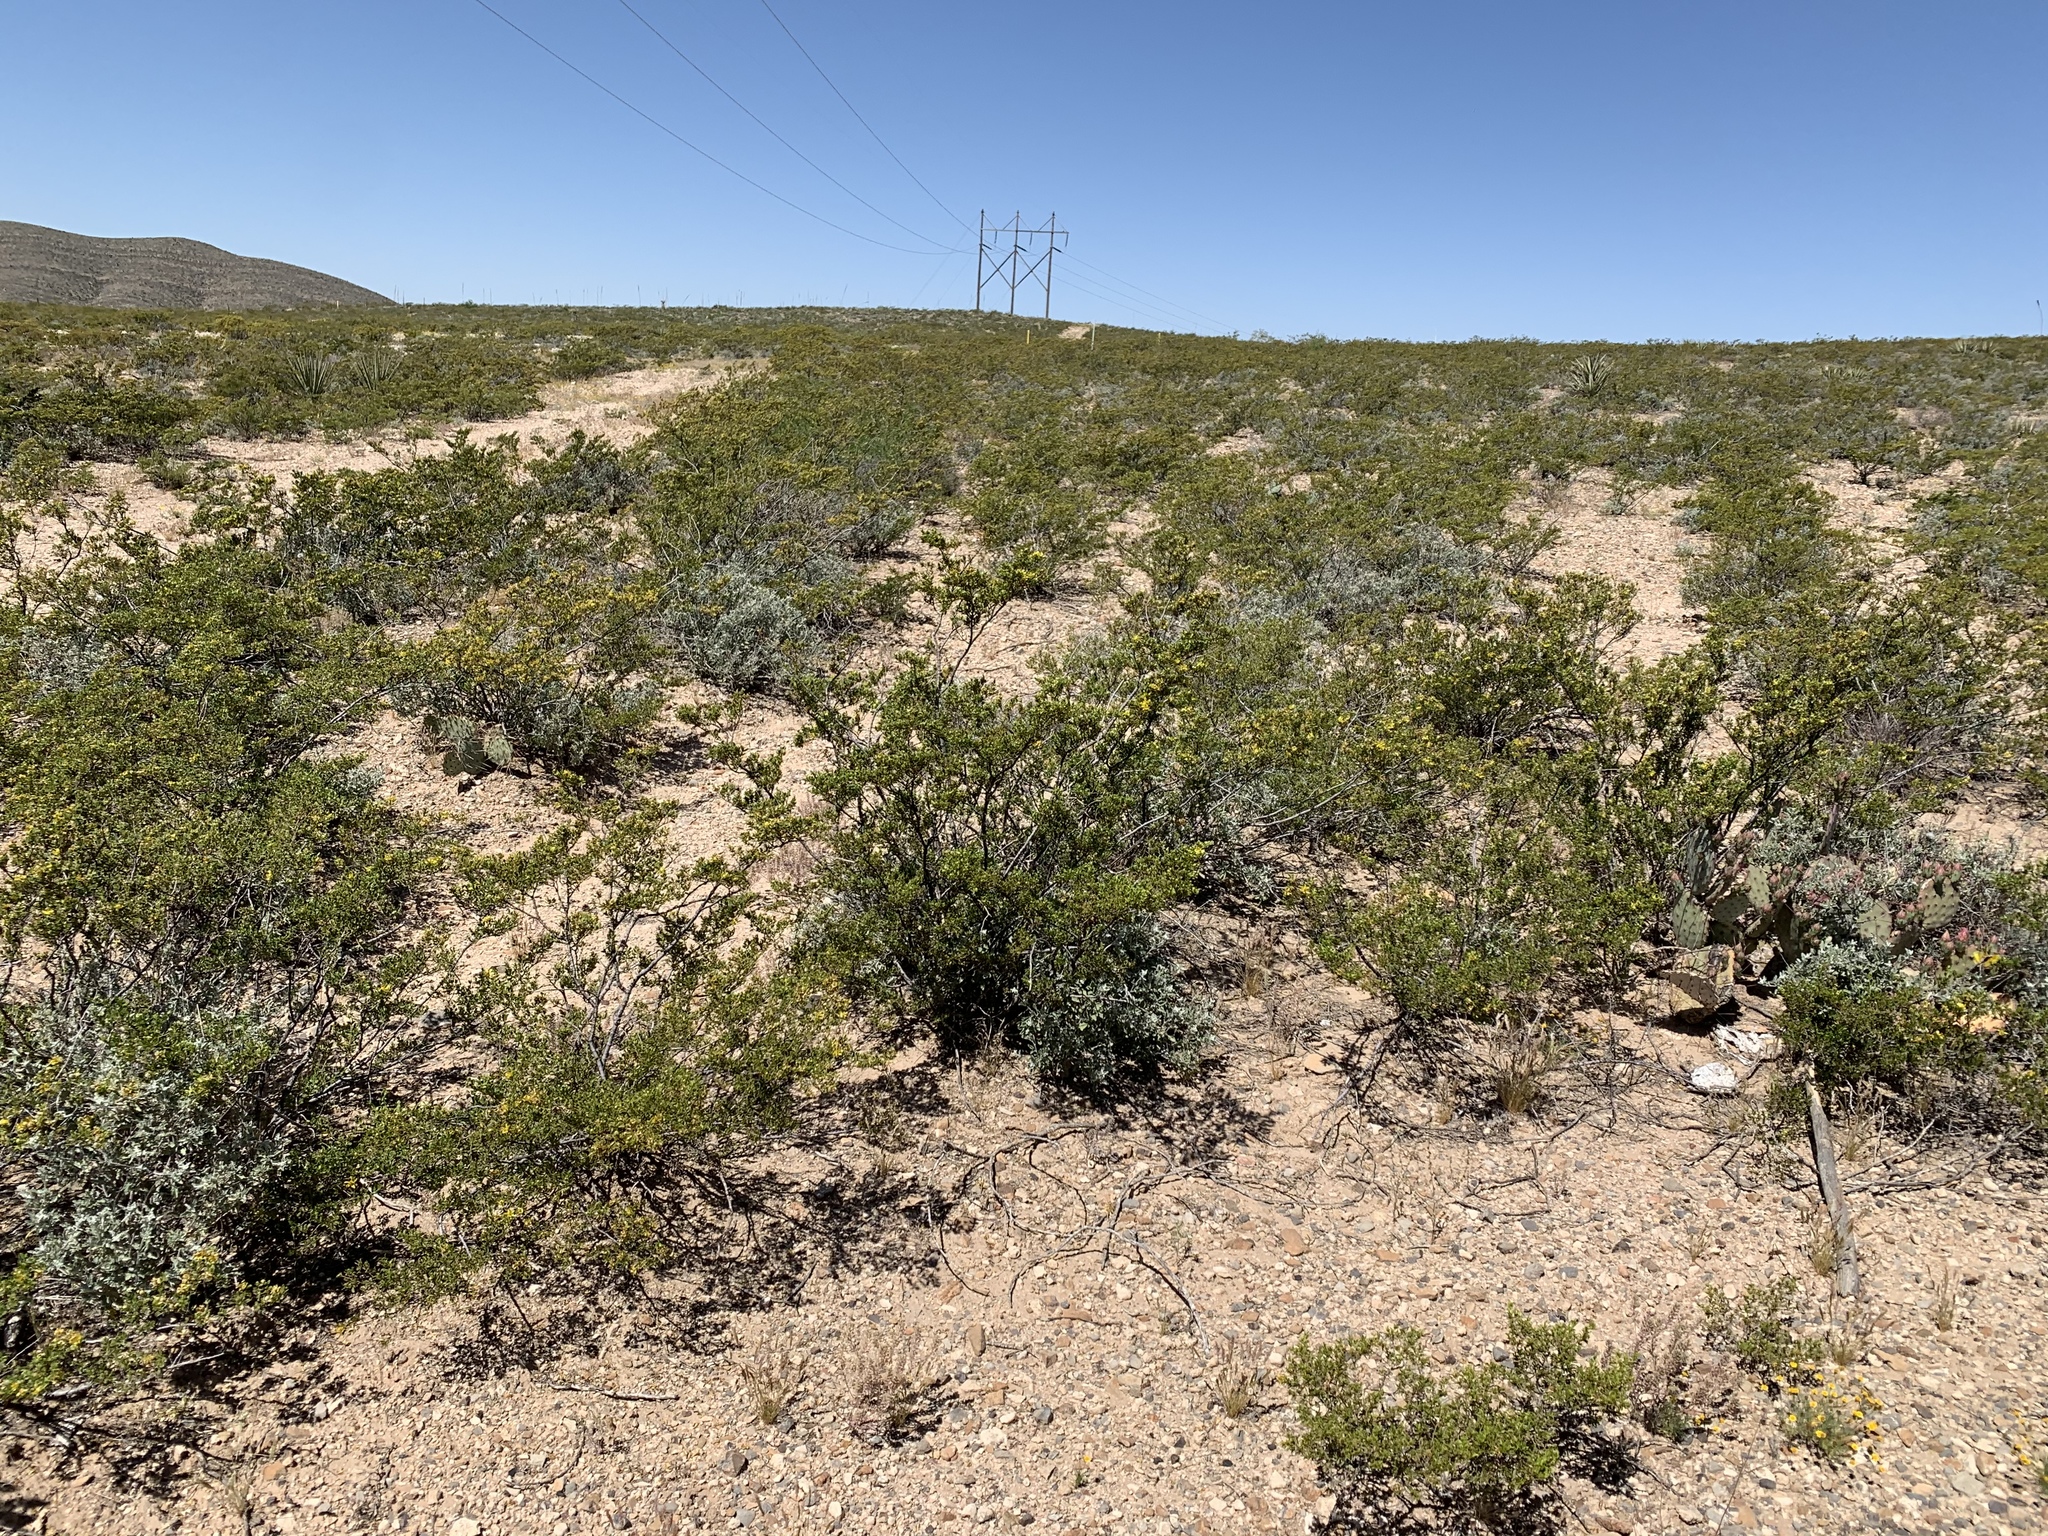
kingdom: Plantae
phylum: Tracheophyta
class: Magnoliopsida
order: Zygophyllales
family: Zygophyllaceae
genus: Larrea
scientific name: Larrea tridentata
